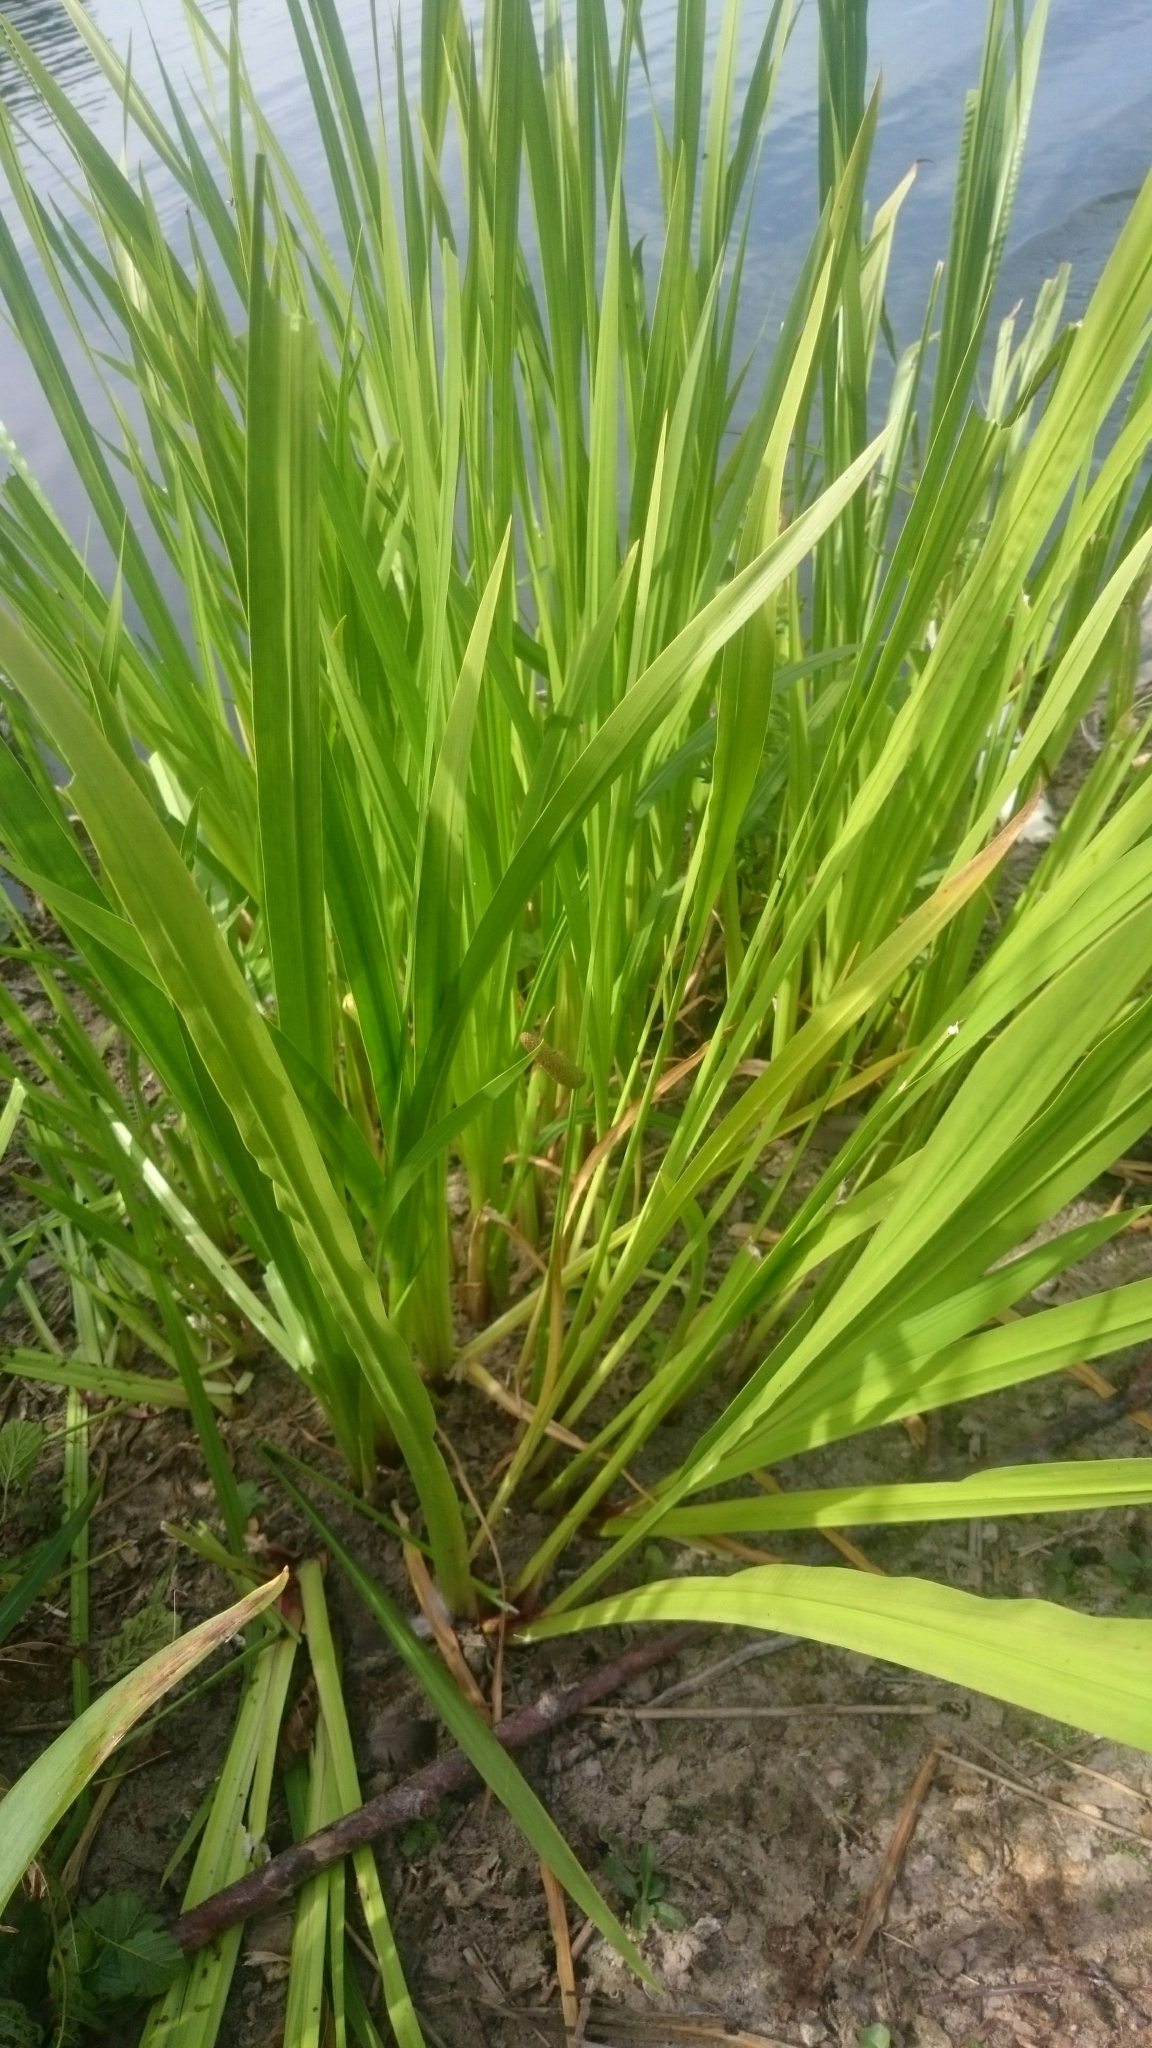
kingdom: Plantae
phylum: Tracheophyta
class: Liliopsida
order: Acorales
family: Acoraceae
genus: Acorus
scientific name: Acorus calamus
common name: Sweet-flag
